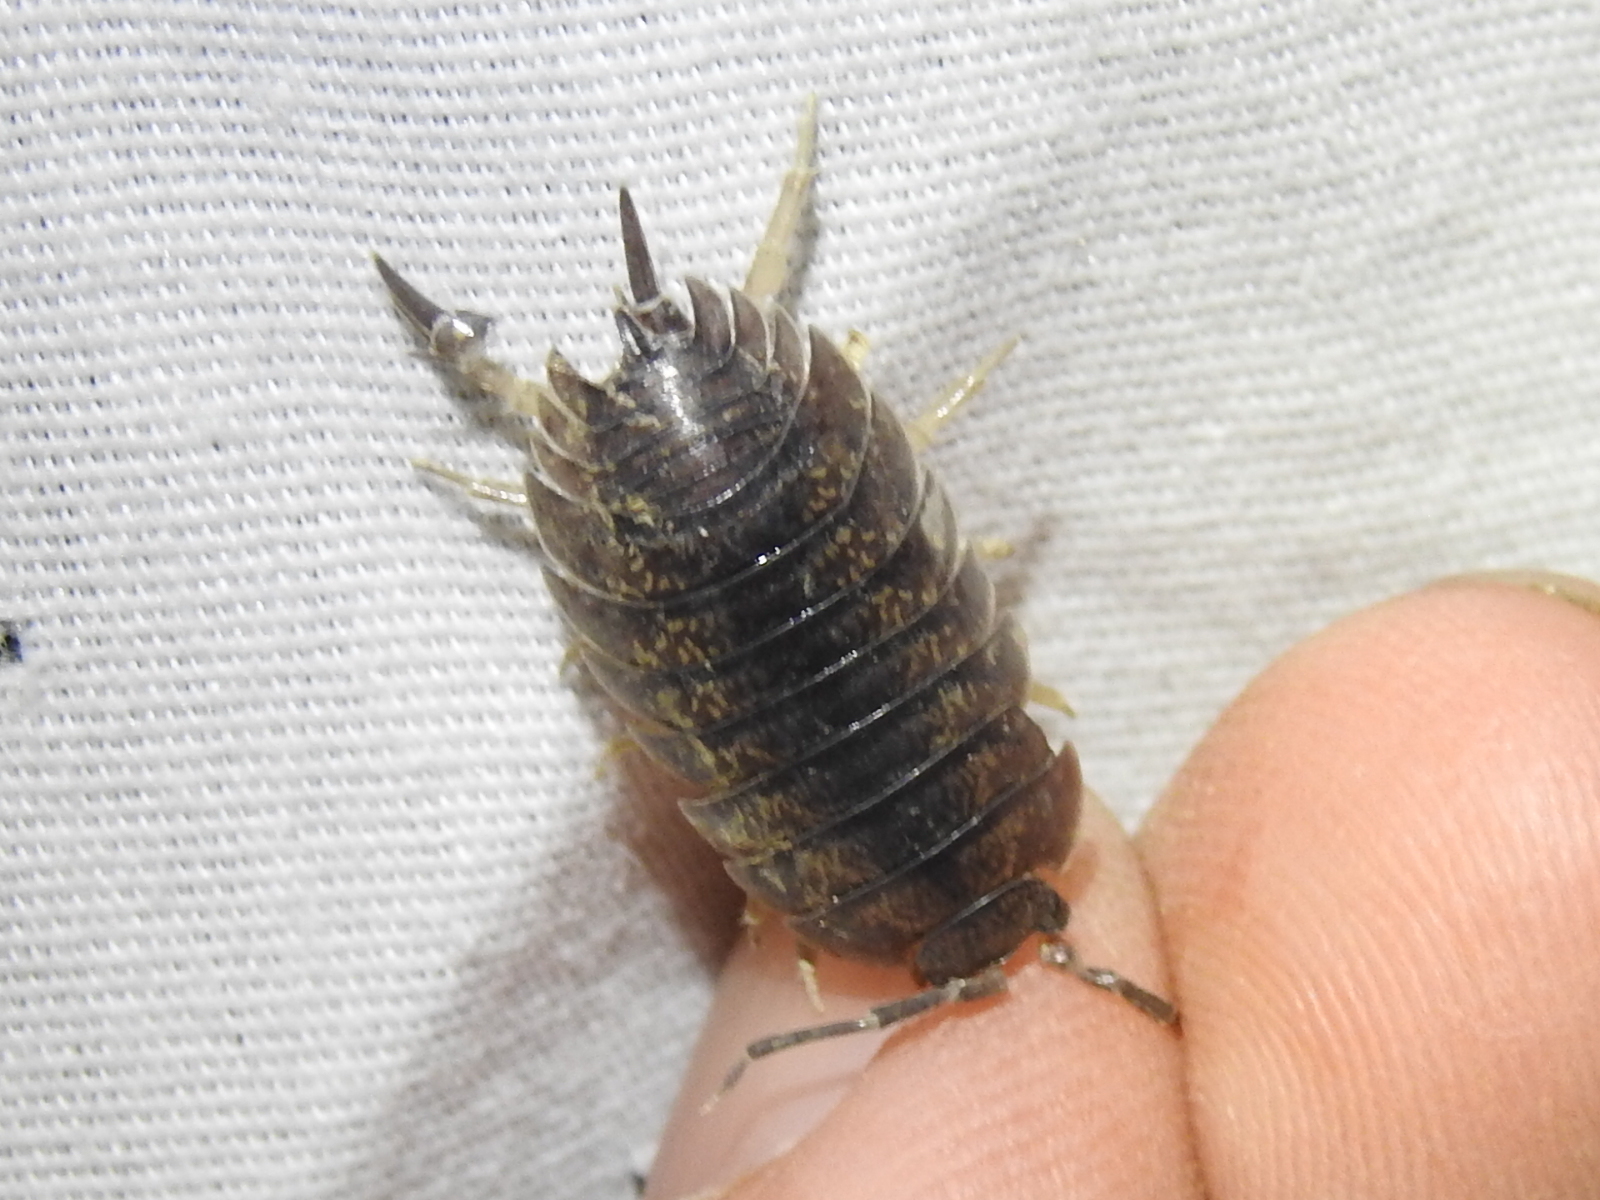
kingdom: Animalia
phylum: Arthropoda
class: Malacostraca
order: Isopoda
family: Porcellionidae
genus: Porcellio
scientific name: Porcellio laevis
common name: Swift woodlouse
